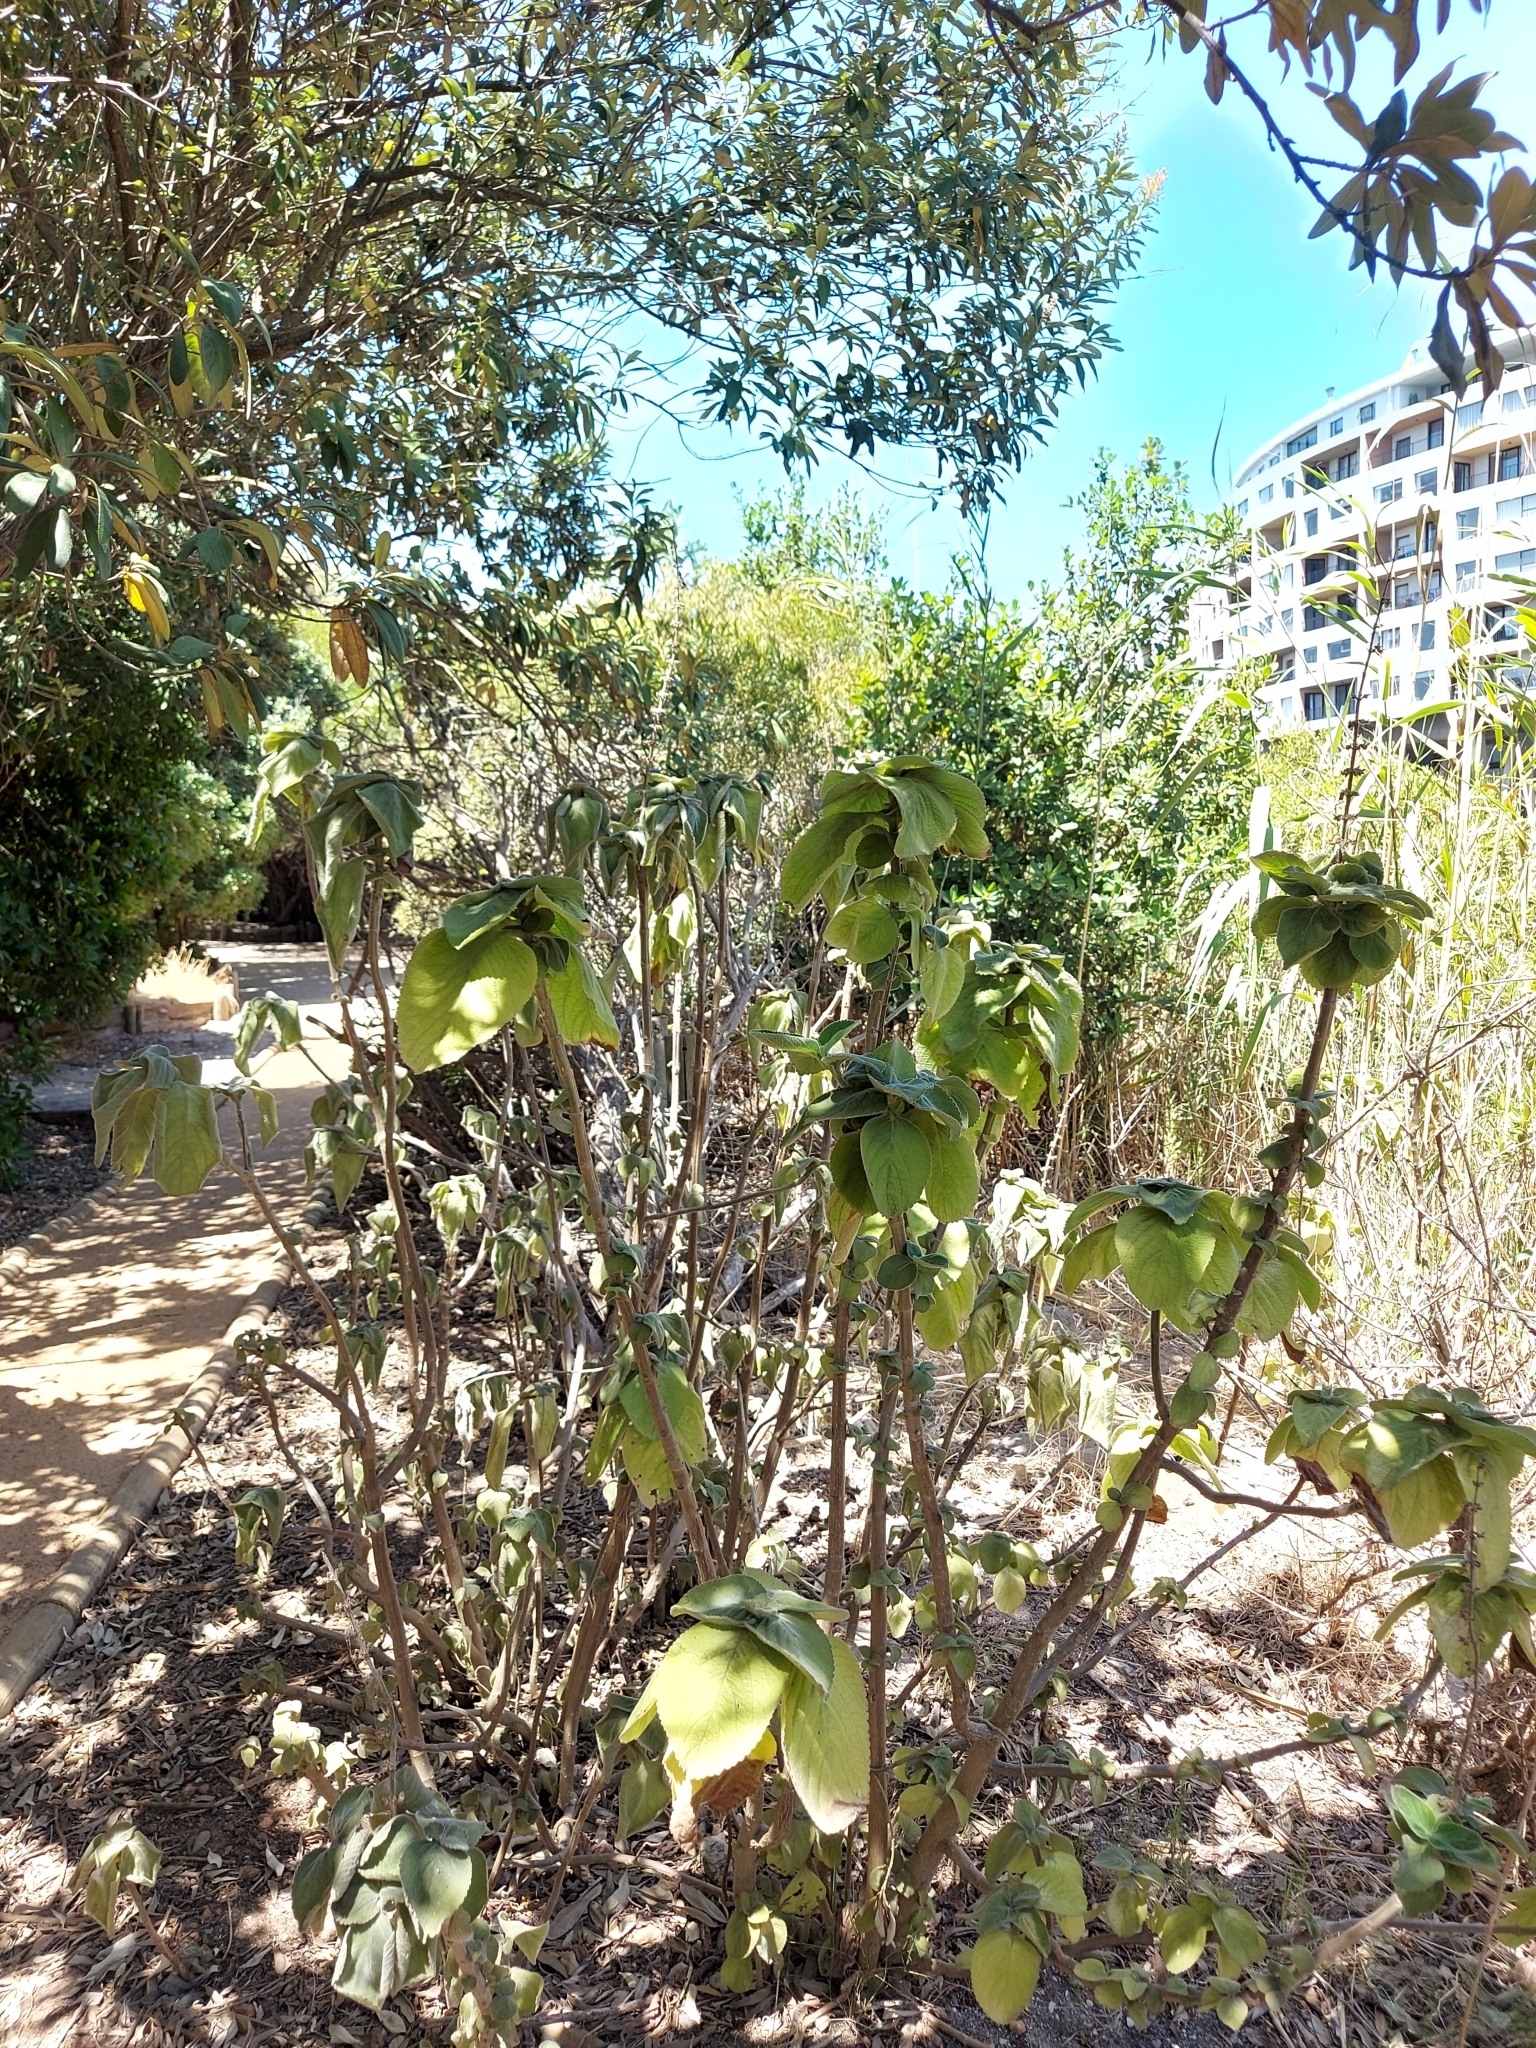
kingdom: Plantae
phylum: Tracheophyta
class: Magnoliopsida
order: Lamiales
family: Lamiaceae
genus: Coleus
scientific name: Coleus barbatus
